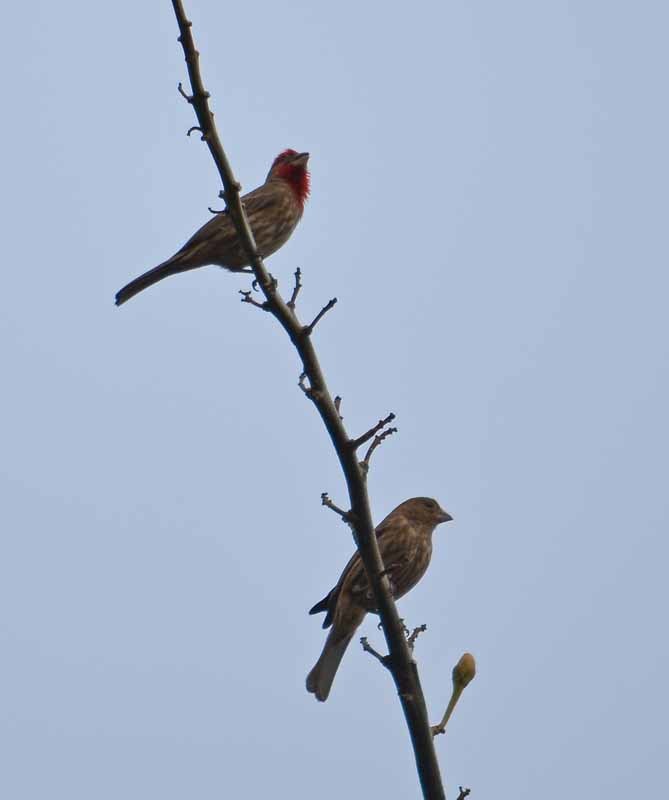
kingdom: Animalia
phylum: Chordata
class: Aves
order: Passeriformes
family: Fringillidae
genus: Haemorhous
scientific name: Haemorhous mexicanus
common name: House finch
